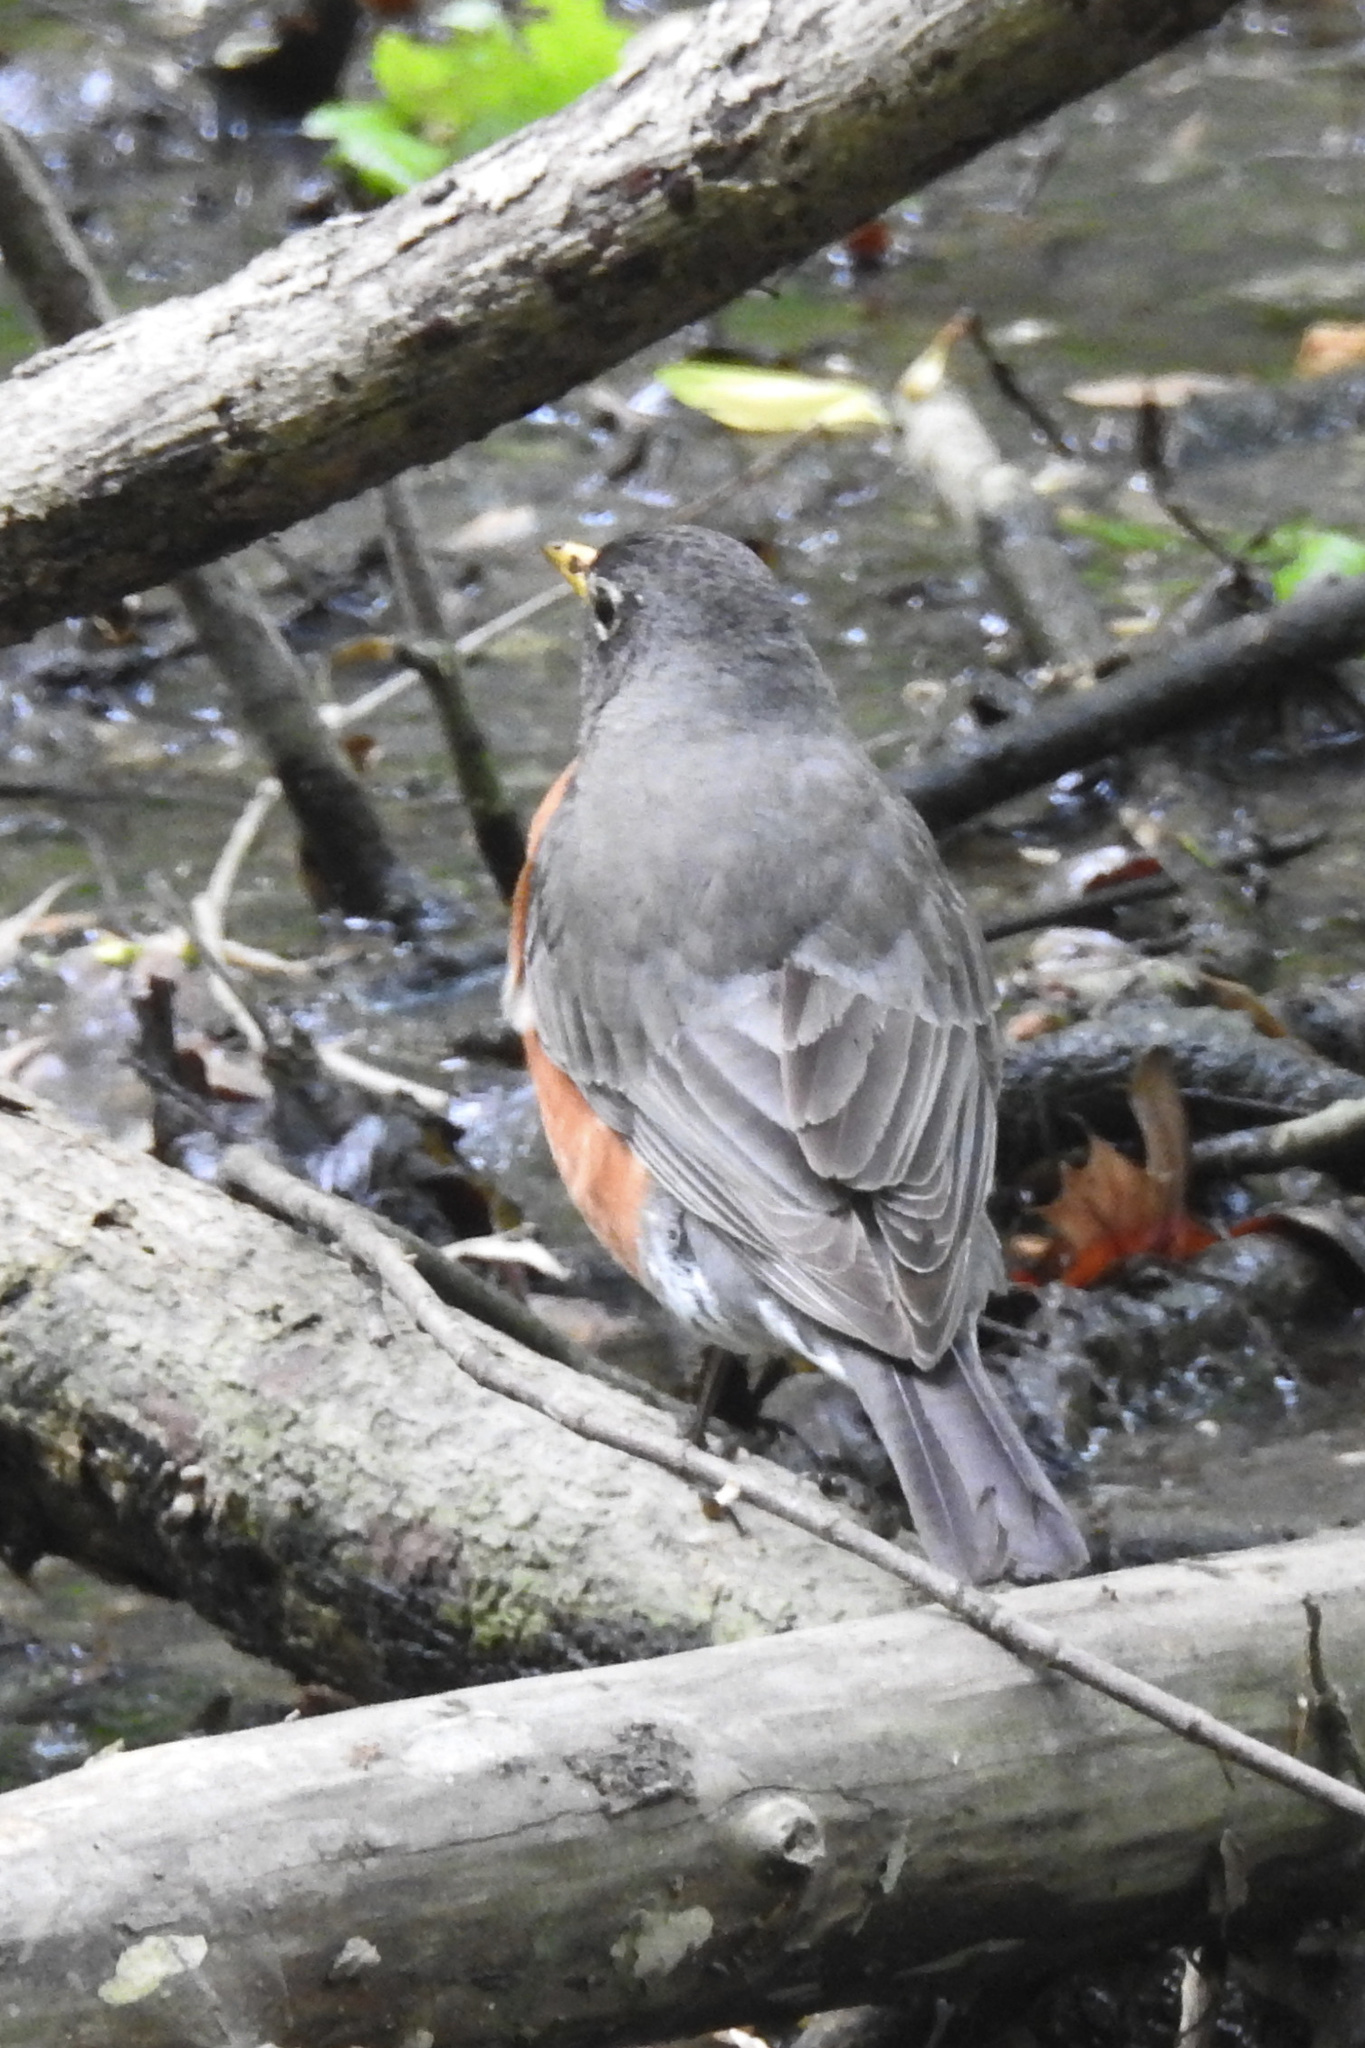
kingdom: Animalia
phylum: Chordata
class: Aves
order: Passeriformes
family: Turdidae
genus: Turdus
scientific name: Turdus migratorius
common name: American robin
